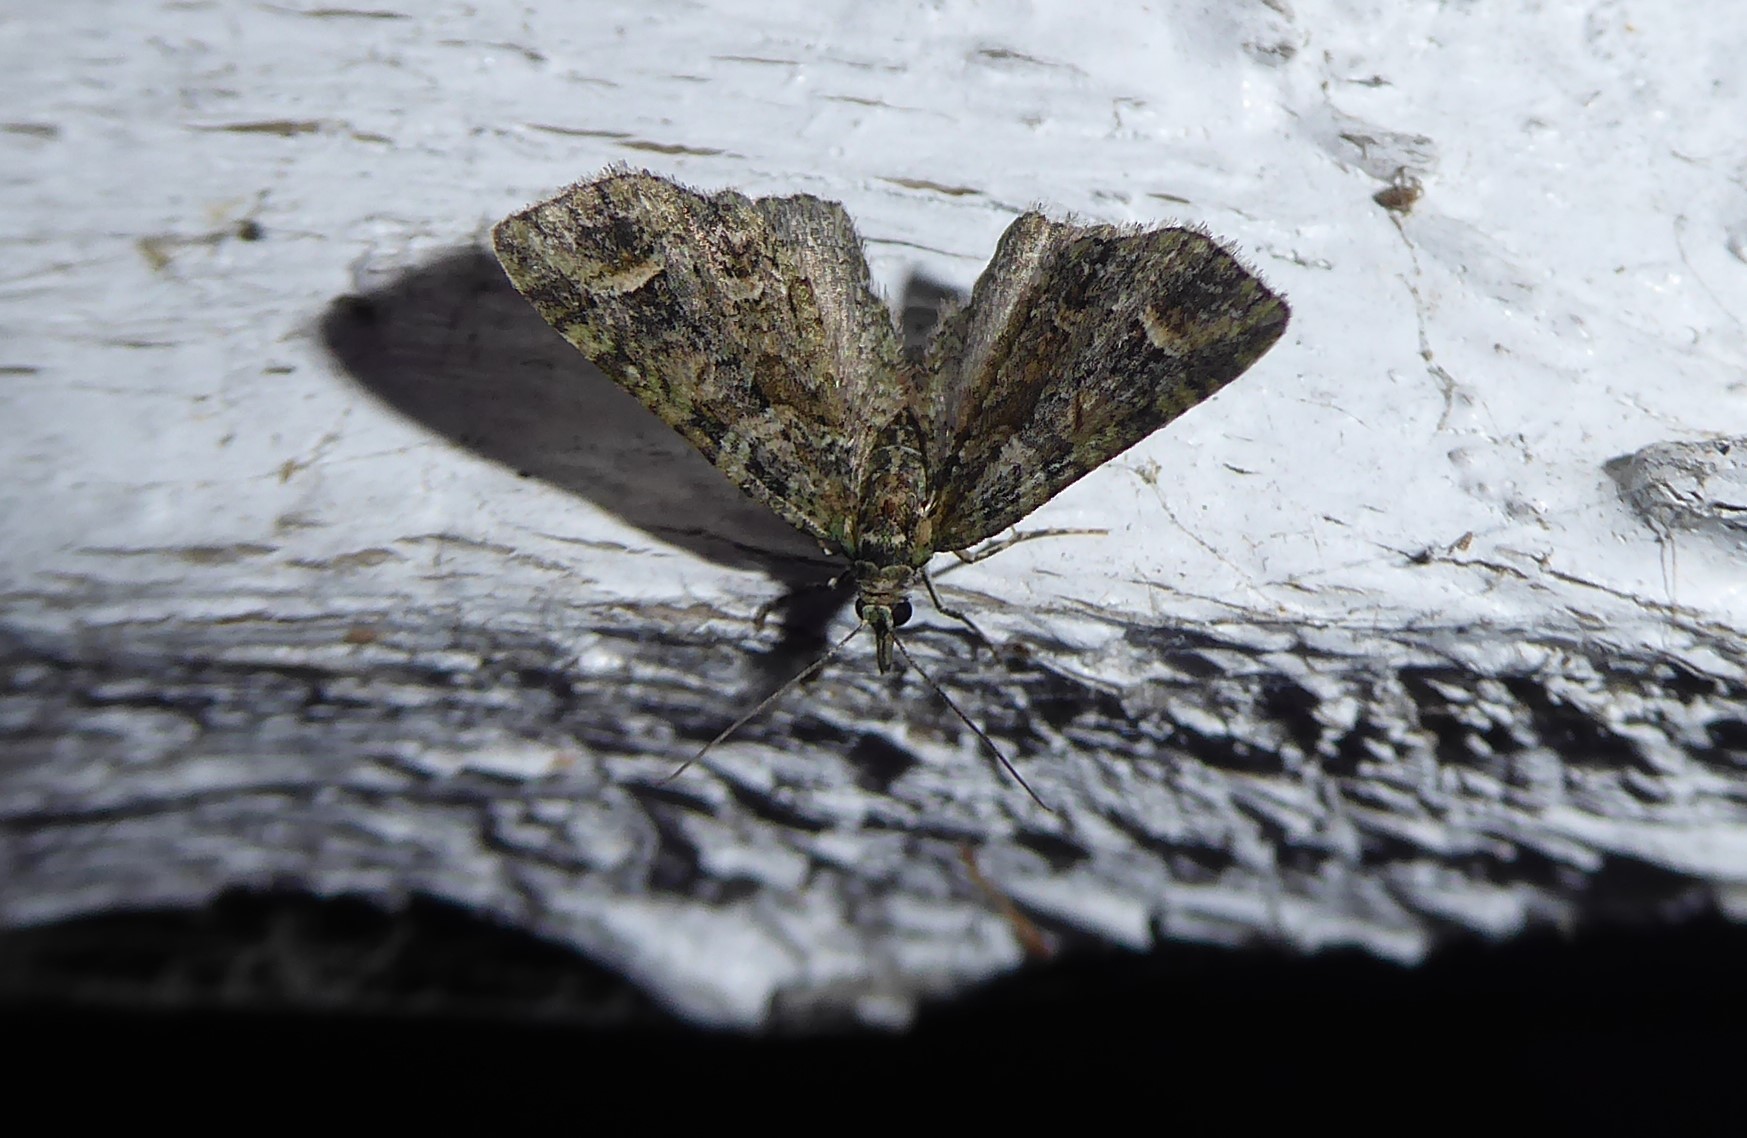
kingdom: Animalia
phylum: Arthropoda
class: Insecta
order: Lepidoptera
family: Geometridae
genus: Idaea
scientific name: Idaea mutanda
